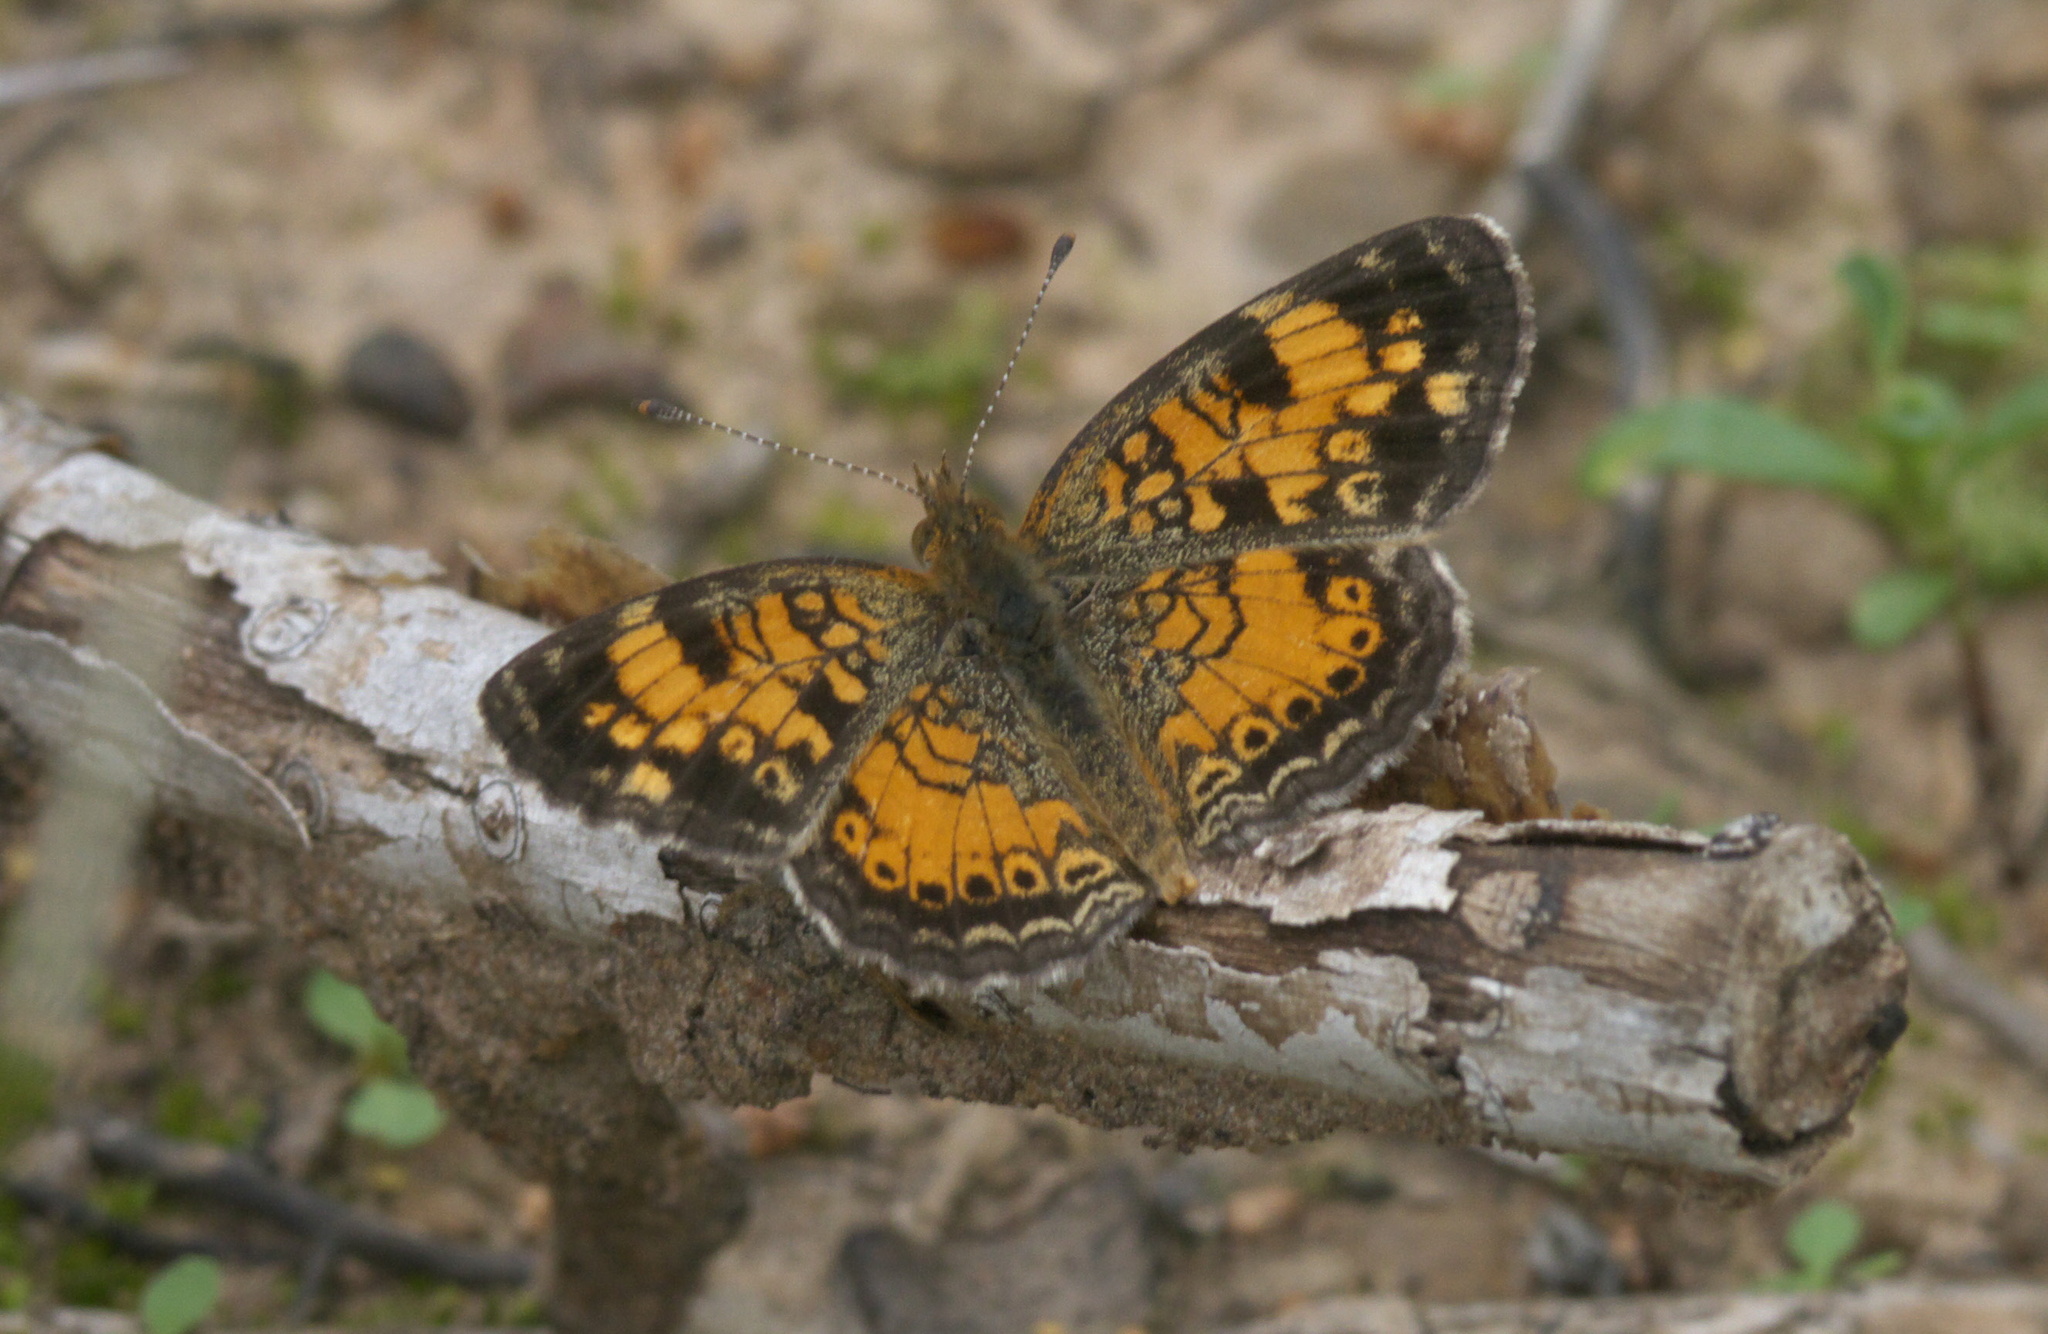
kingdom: Animalia
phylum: Arthropoda
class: Insecta
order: Lepidoptera
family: Nymphalidae
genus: Phyciodes
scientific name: Phyciodes tharos
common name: Pearl crescent
